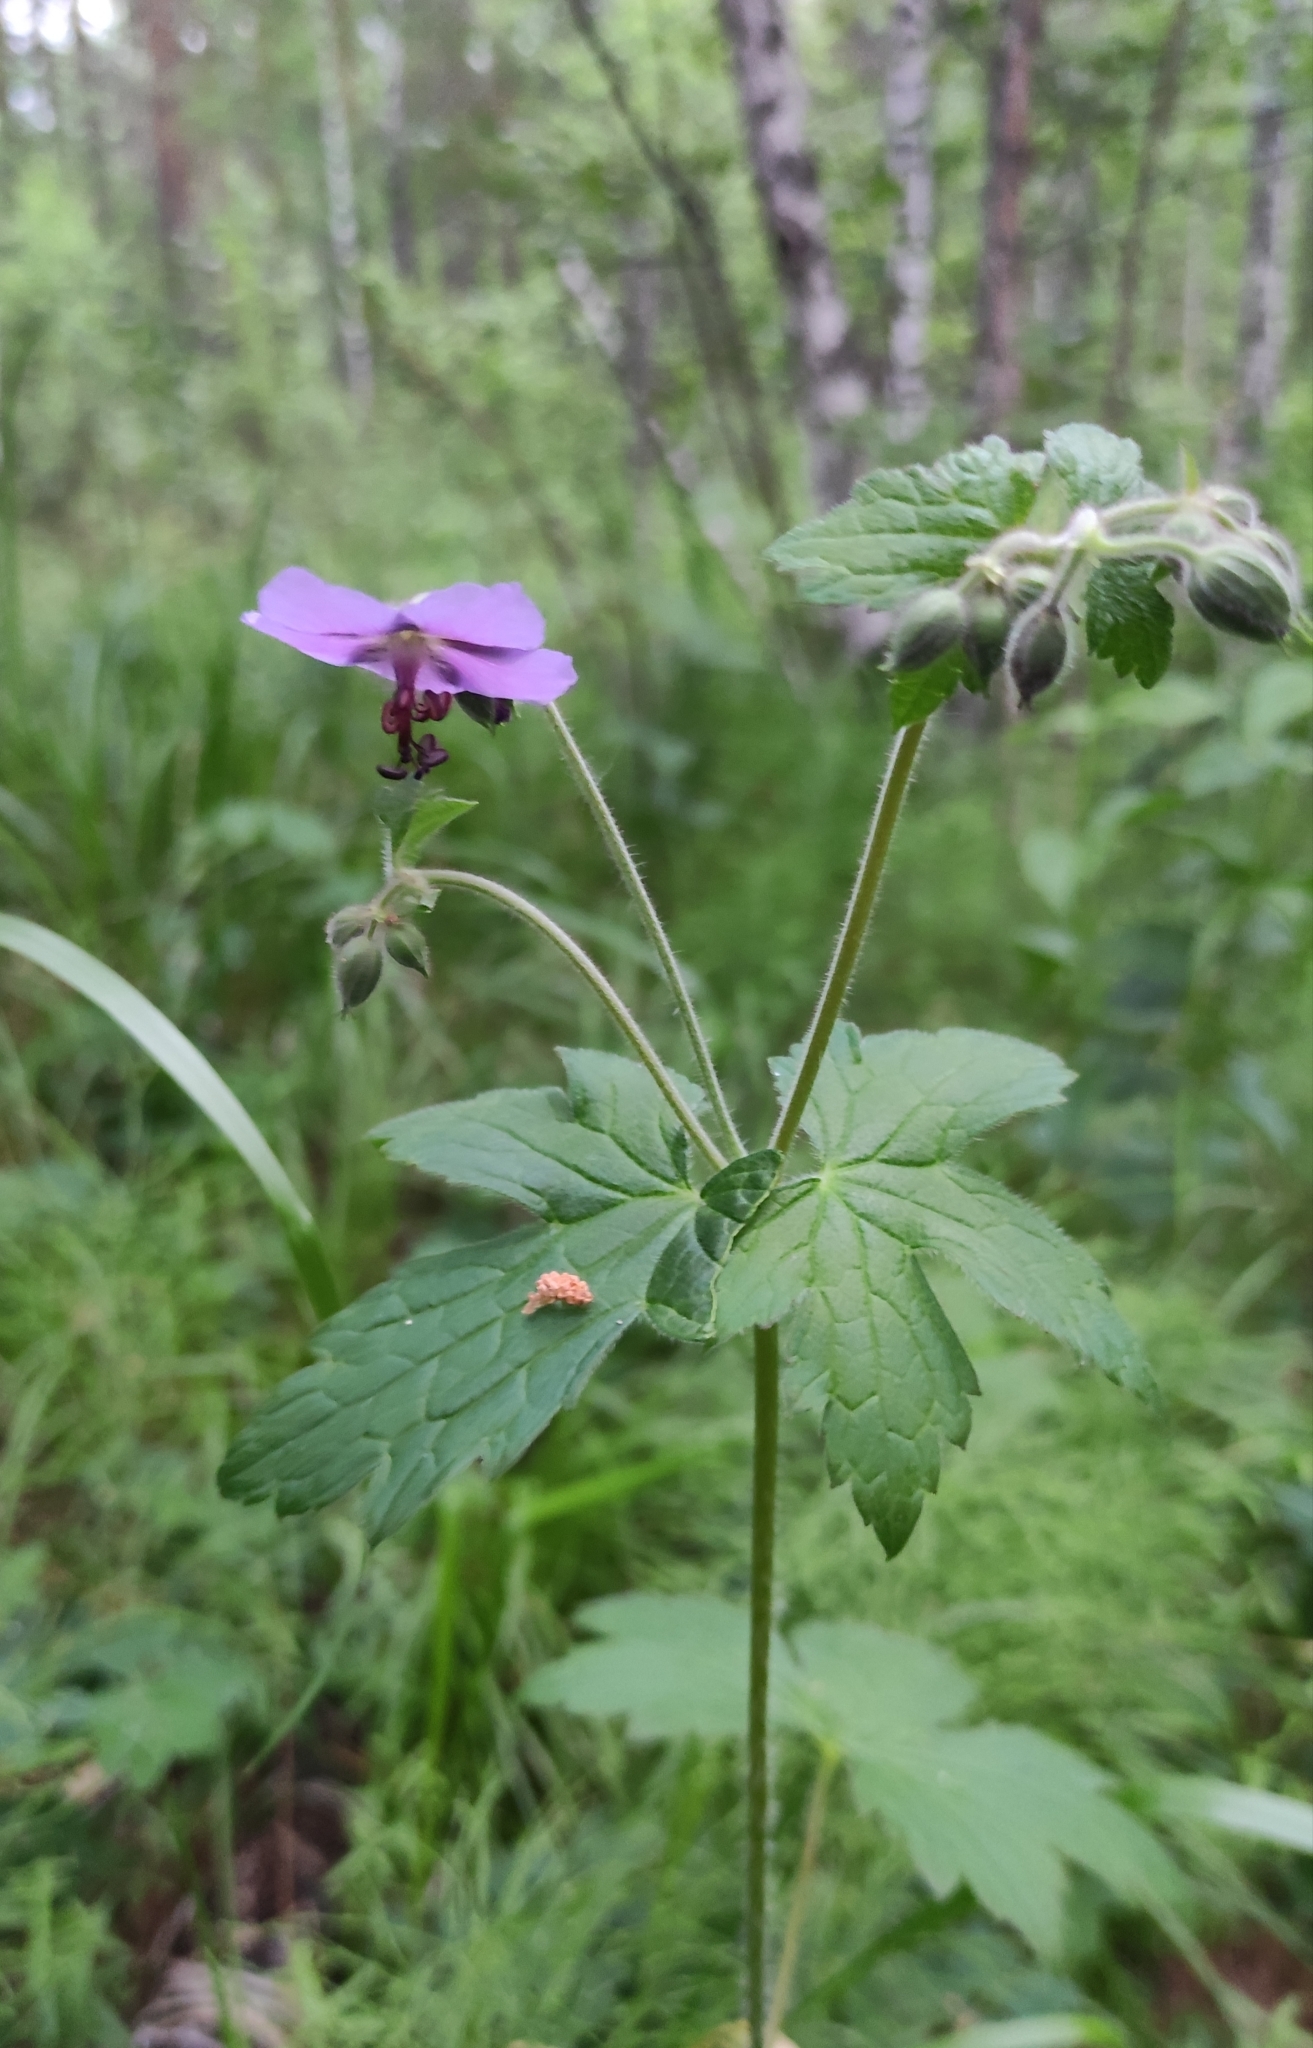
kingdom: Plantae
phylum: Tracheophyta
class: Magnoliopsida
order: Geraniales
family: Geraniaceae
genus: Geranium
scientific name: Geranium platyanthum
